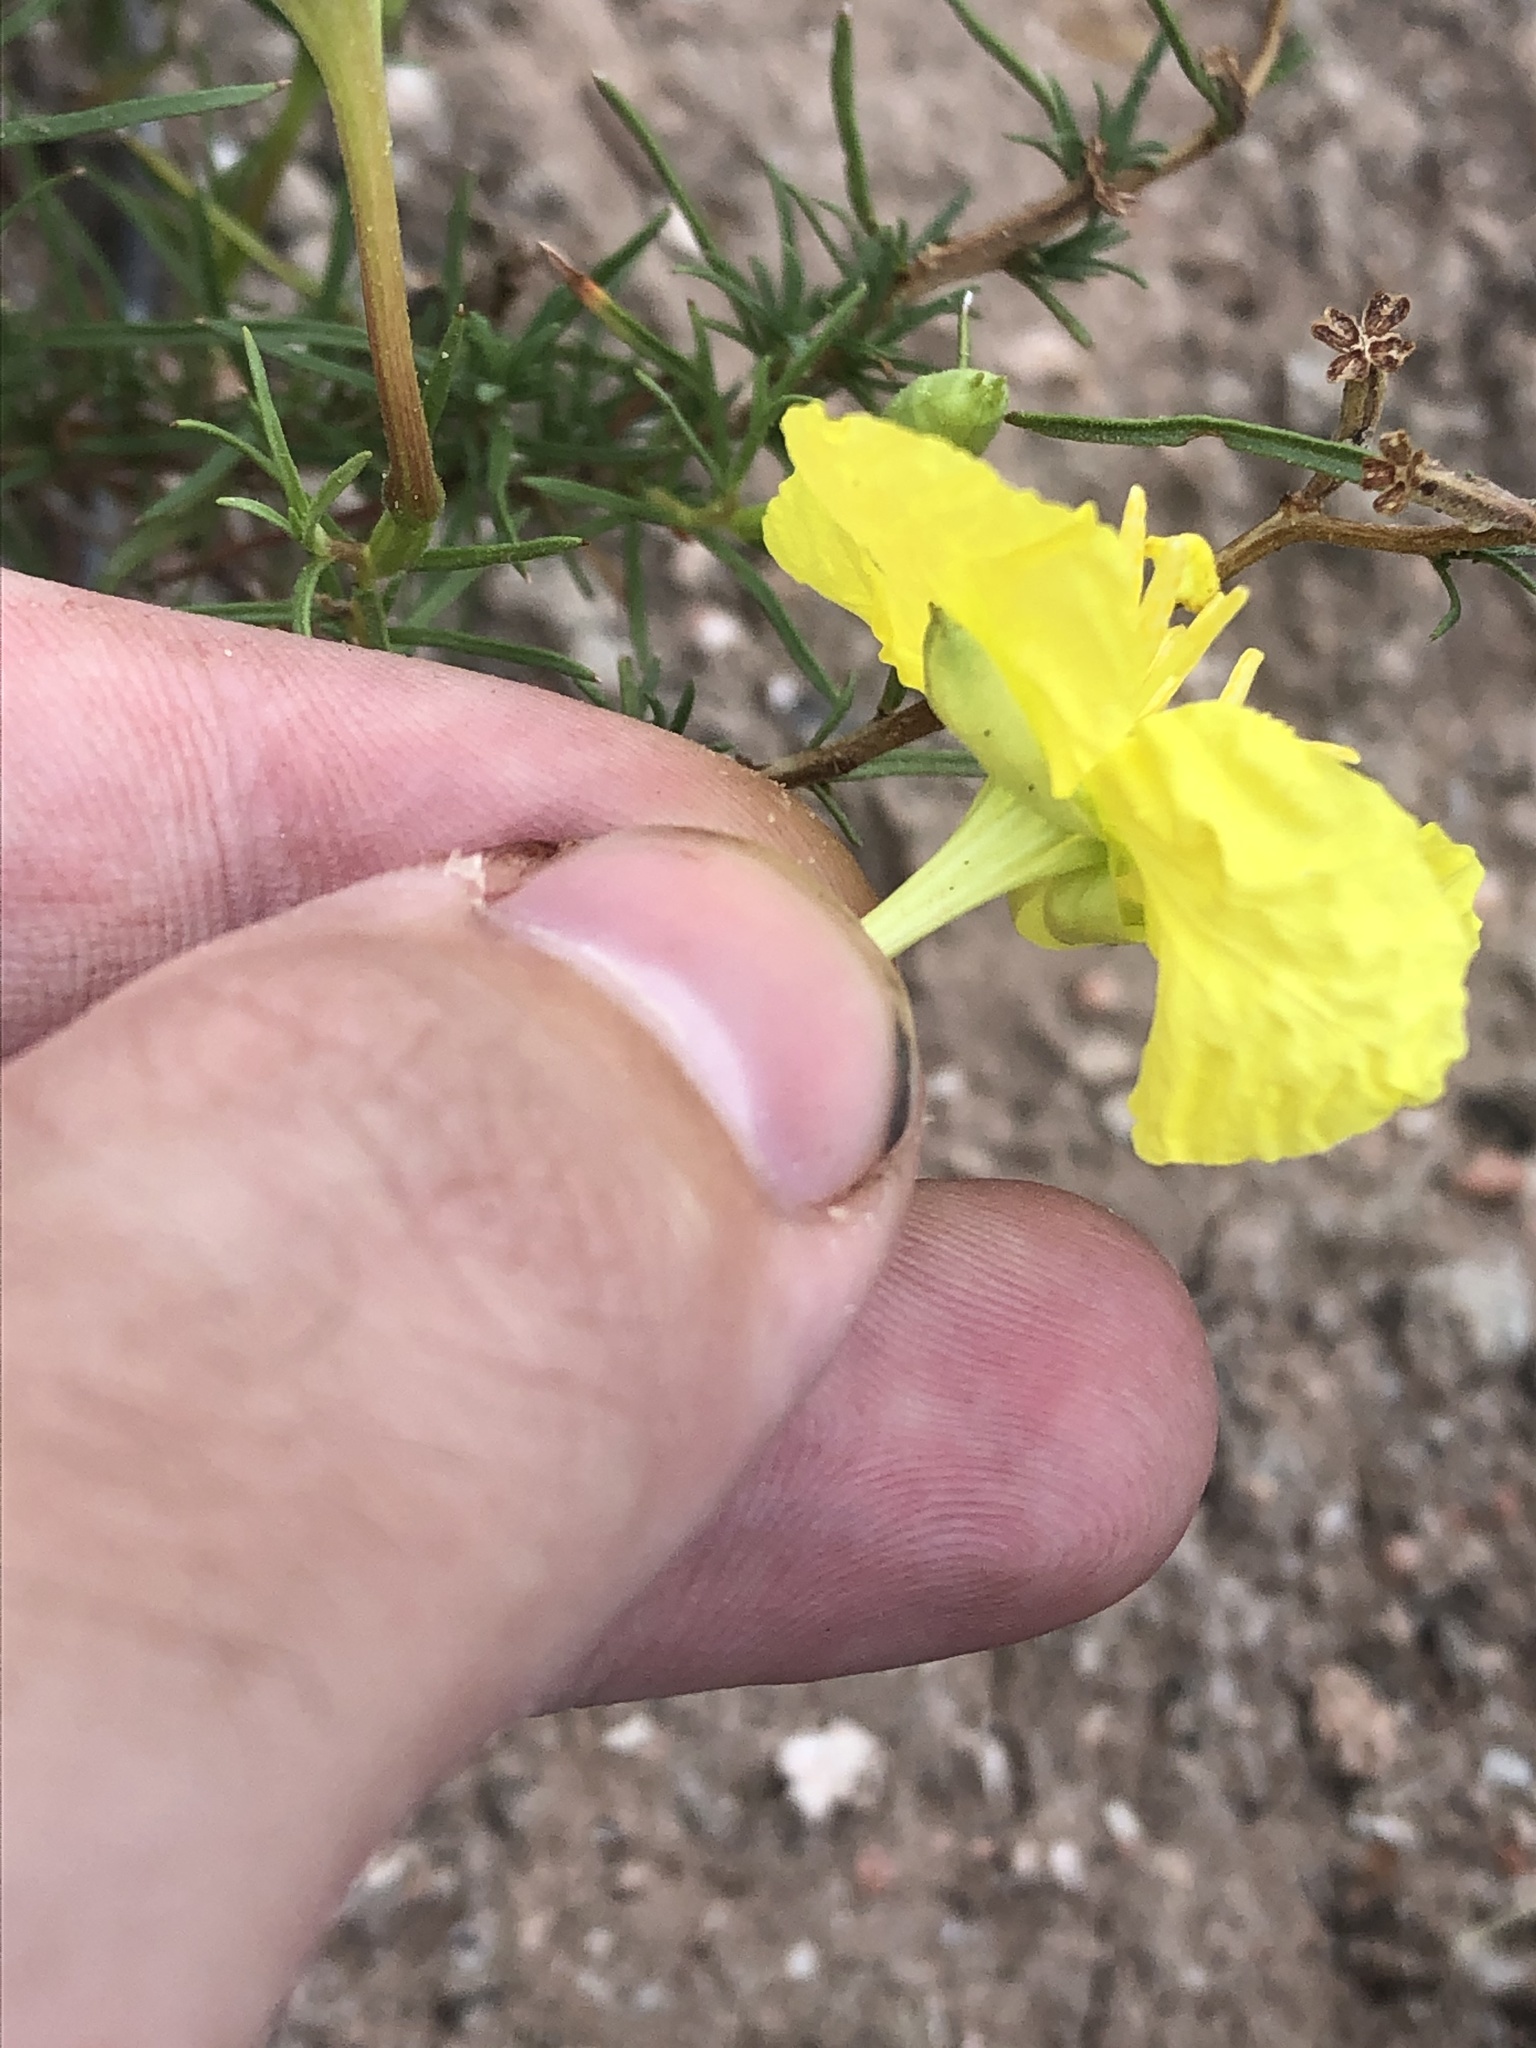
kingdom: Plantae
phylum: Tracheophyta
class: Magnoliopsida
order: Myrtales
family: Onagraceae
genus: Oenothera
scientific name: Oenothera hartwegii
